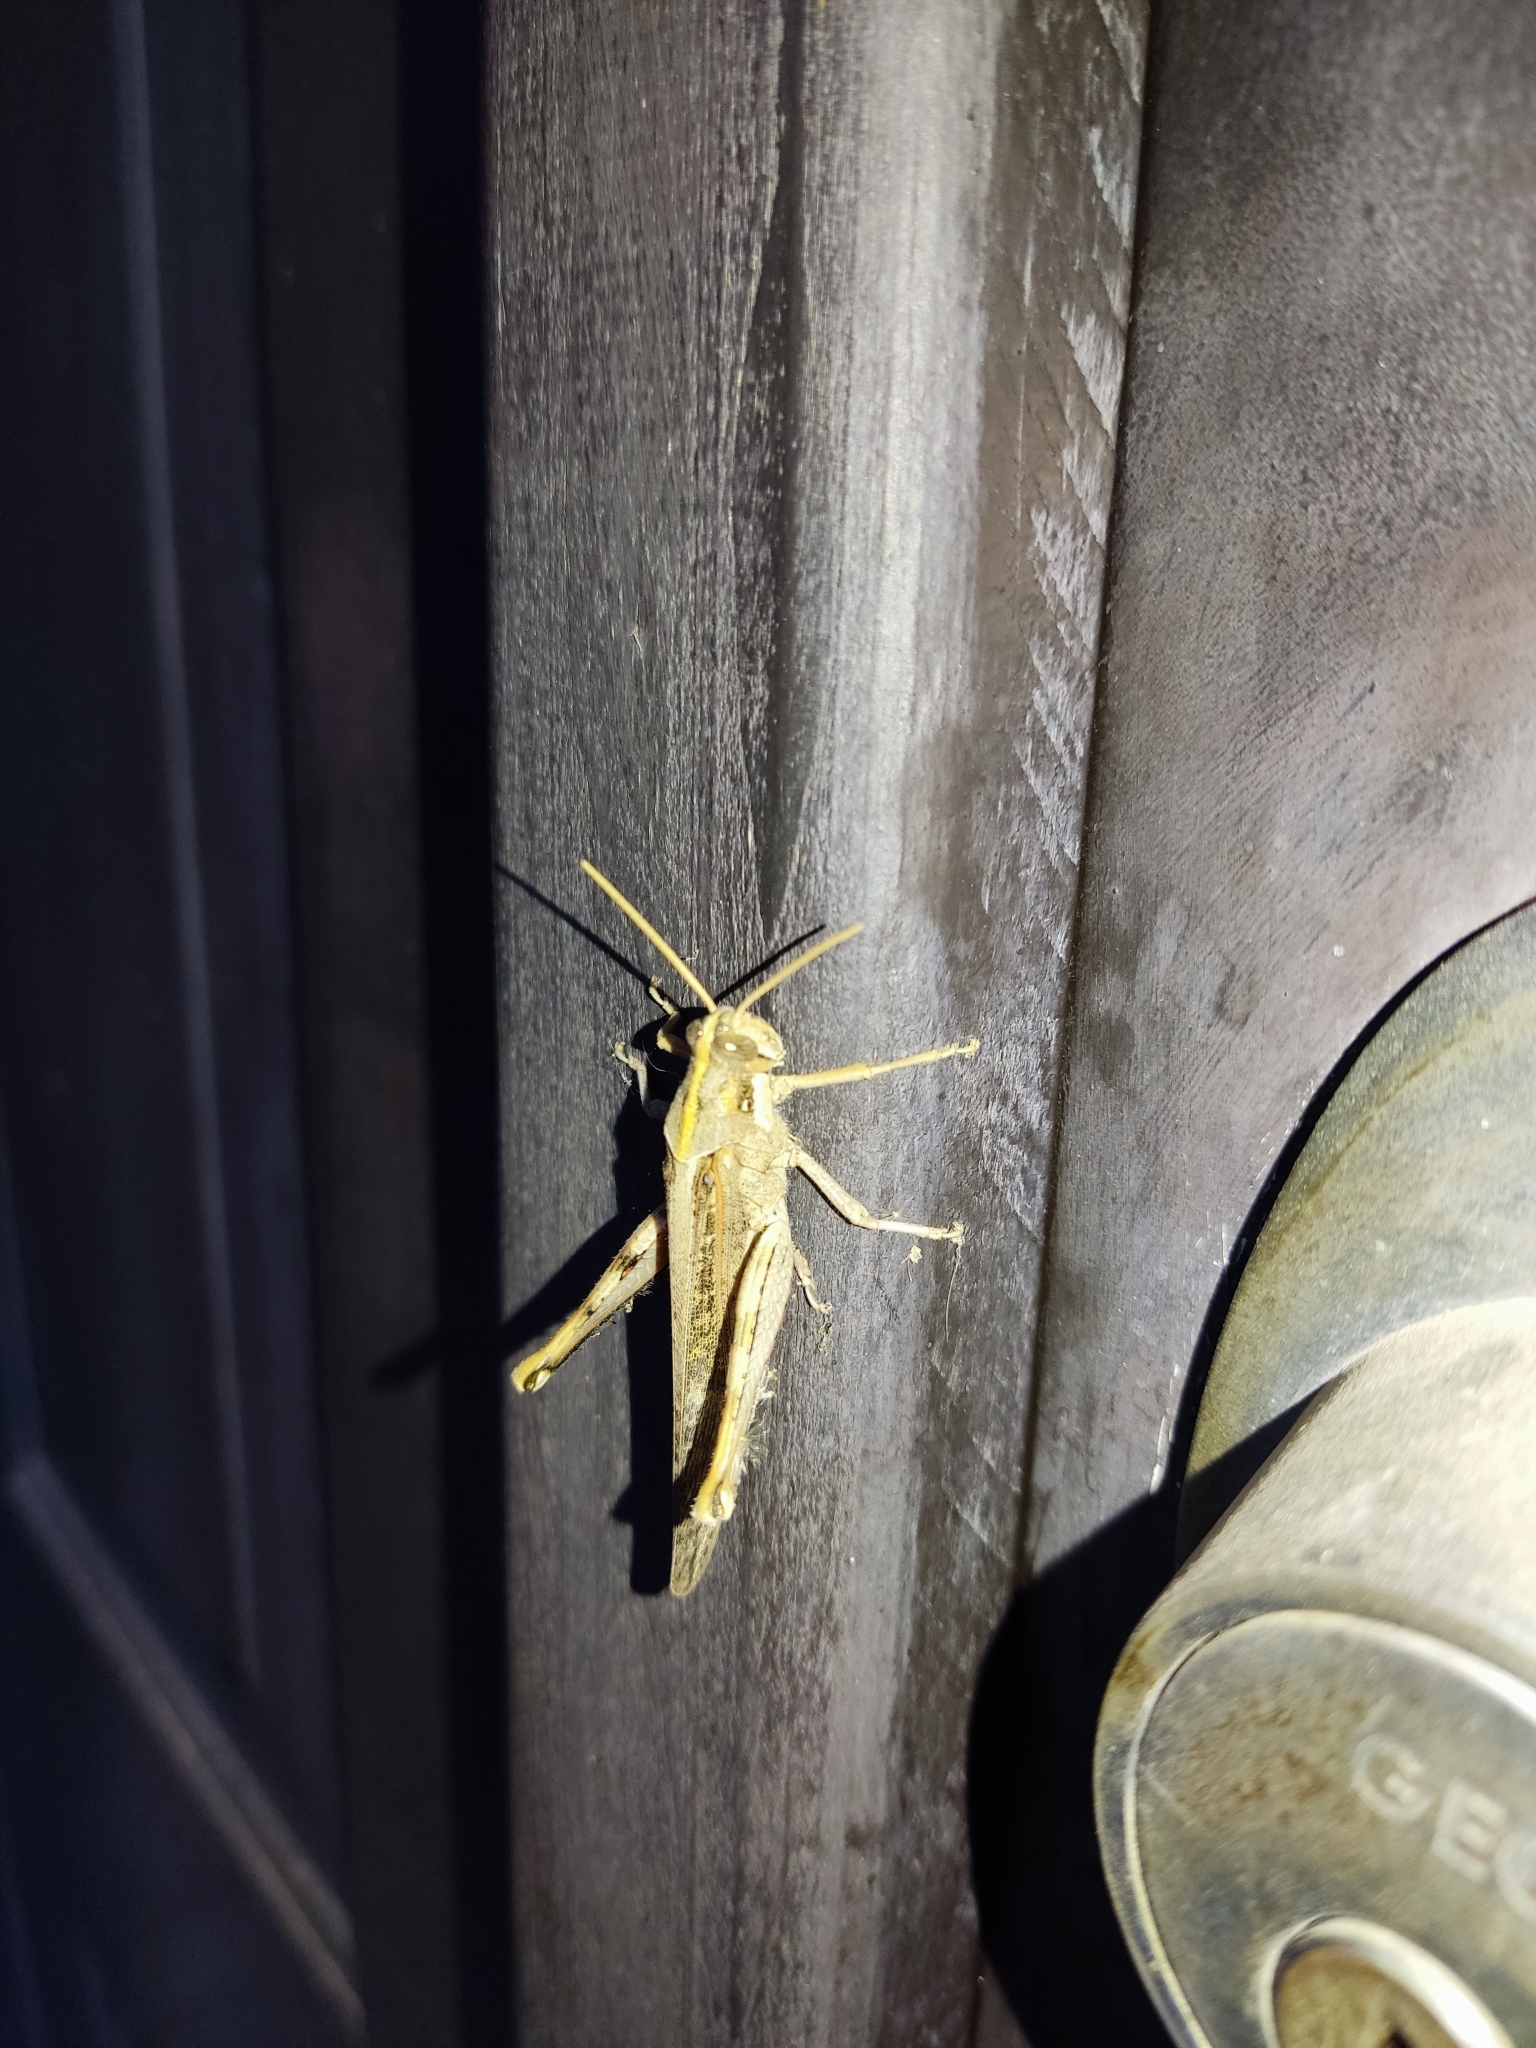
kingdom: Animalia
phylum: Arthropoda
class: Insecta
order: Orthoptera
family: Acrididae
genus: Schistocerca
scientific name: Schistocerca nitens
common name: Vagrant grasshopper
